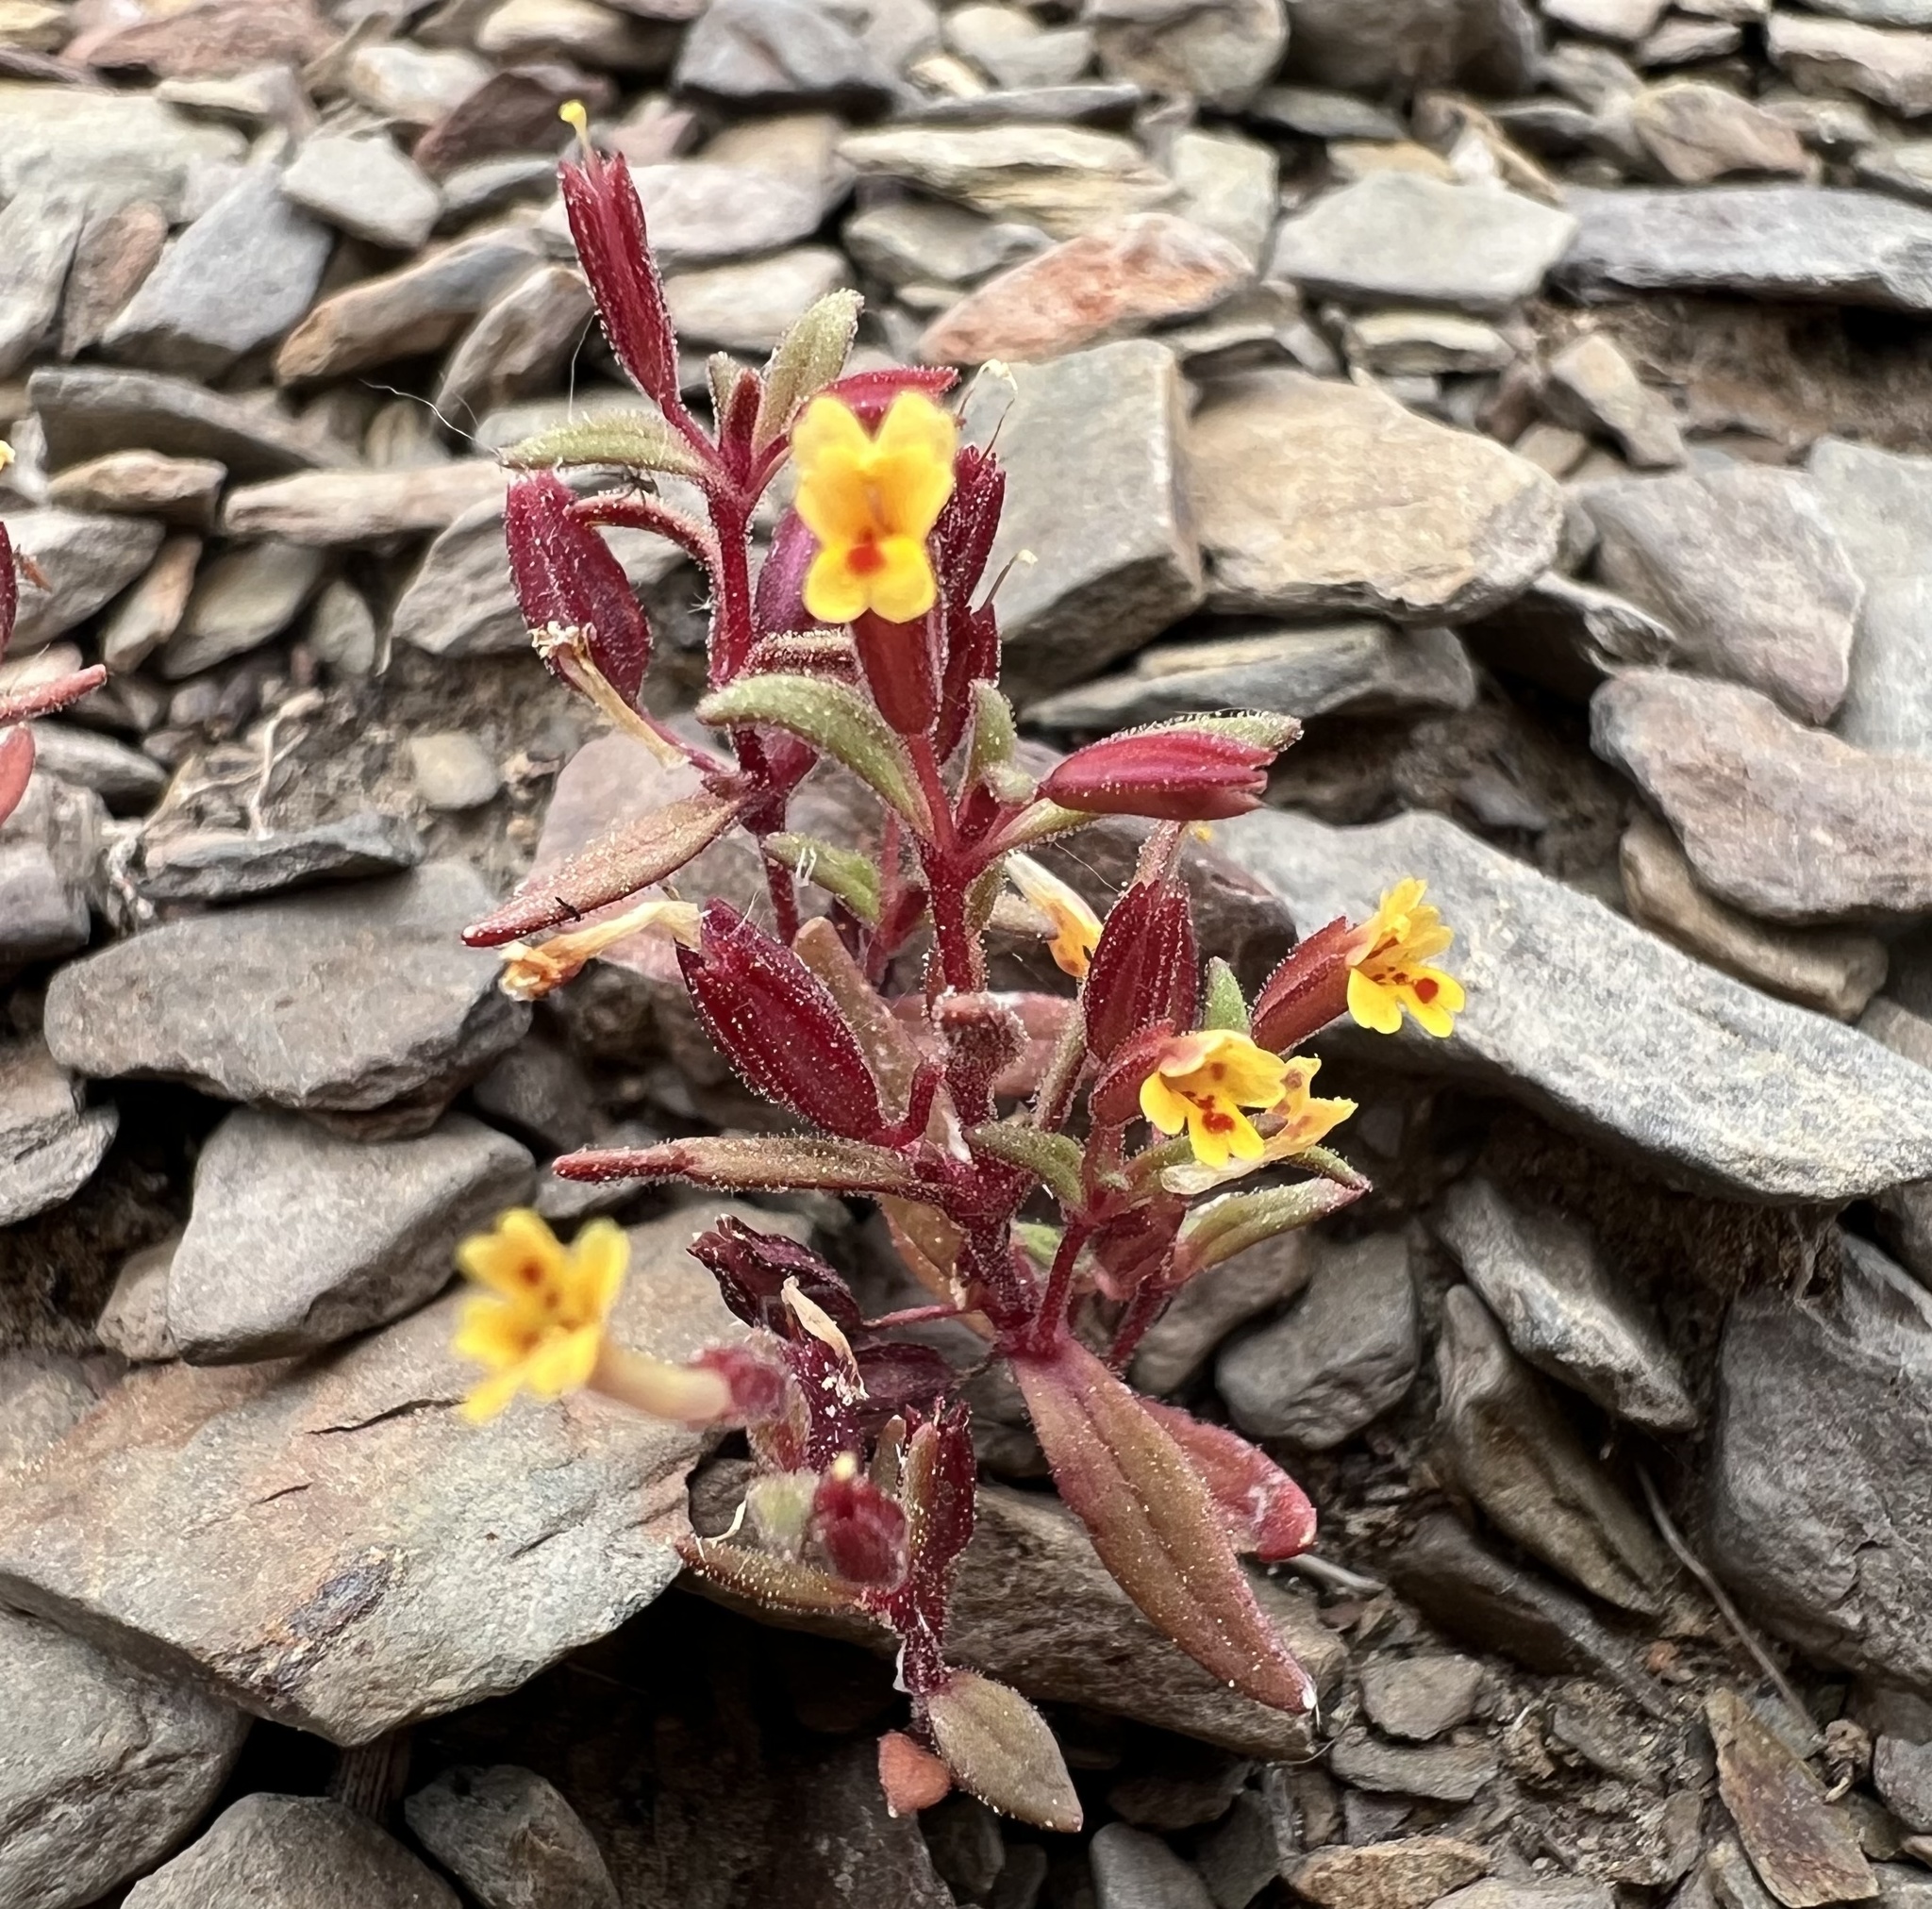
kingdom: Plantae
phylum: Tracheophyta
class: Magnoliopsida
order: Lamiales
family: Phrymaceae
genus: Erythranthe
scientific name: Erythranthe suksdorfii
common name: Suksdorf's monkeyflower
